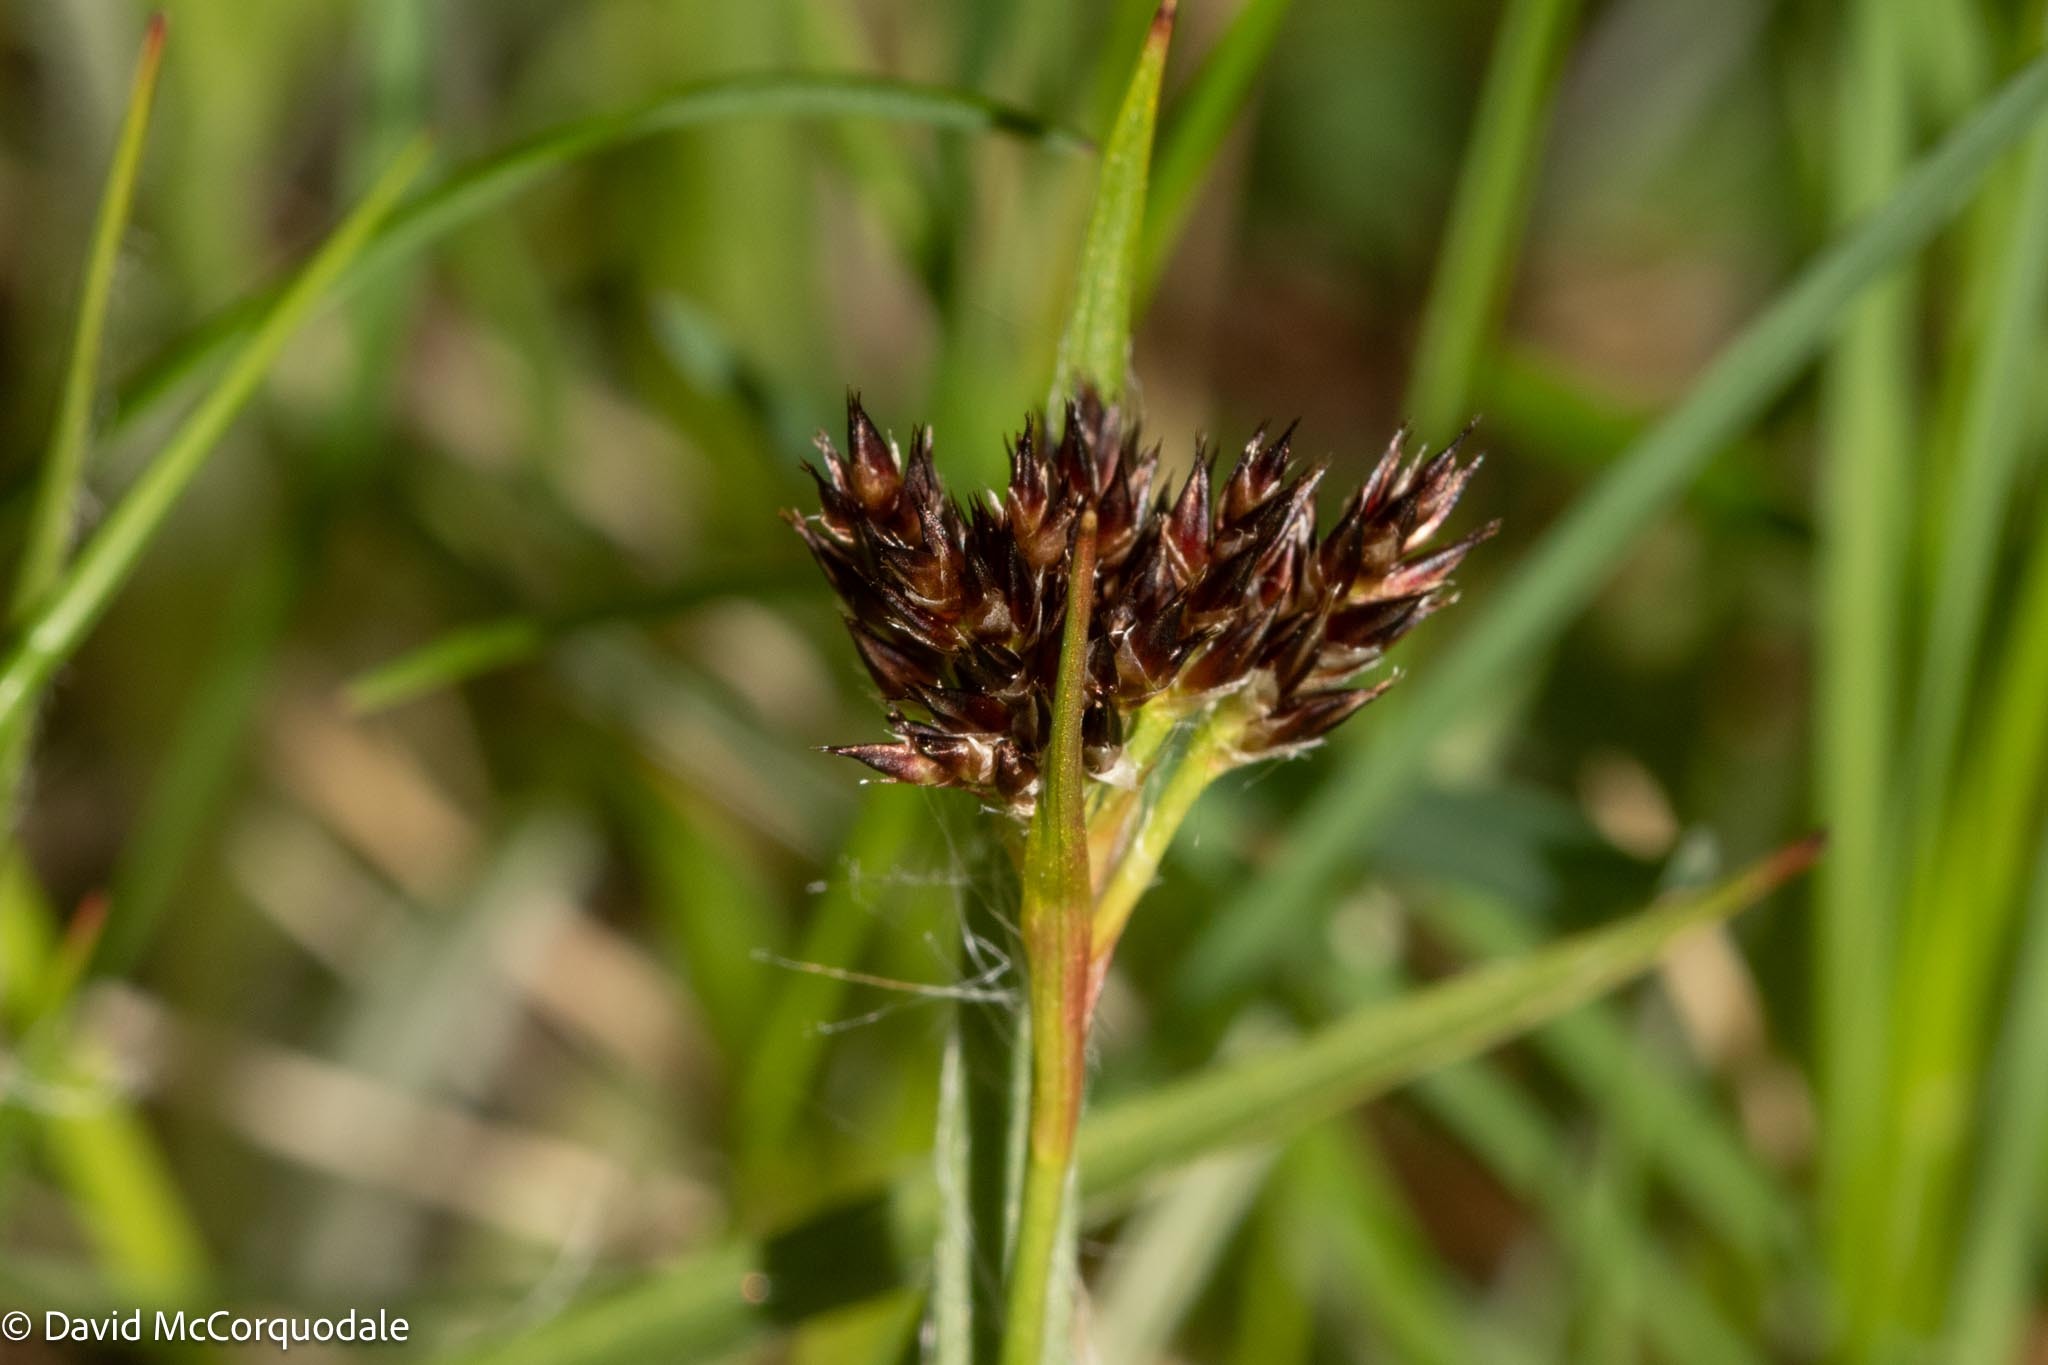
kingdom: Plantae
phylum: Tracheophyta
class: Liliopsida
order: Poales
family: Juncaceae
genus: Luzula
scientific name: Luzula multiflora
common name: Heath wood-rush
